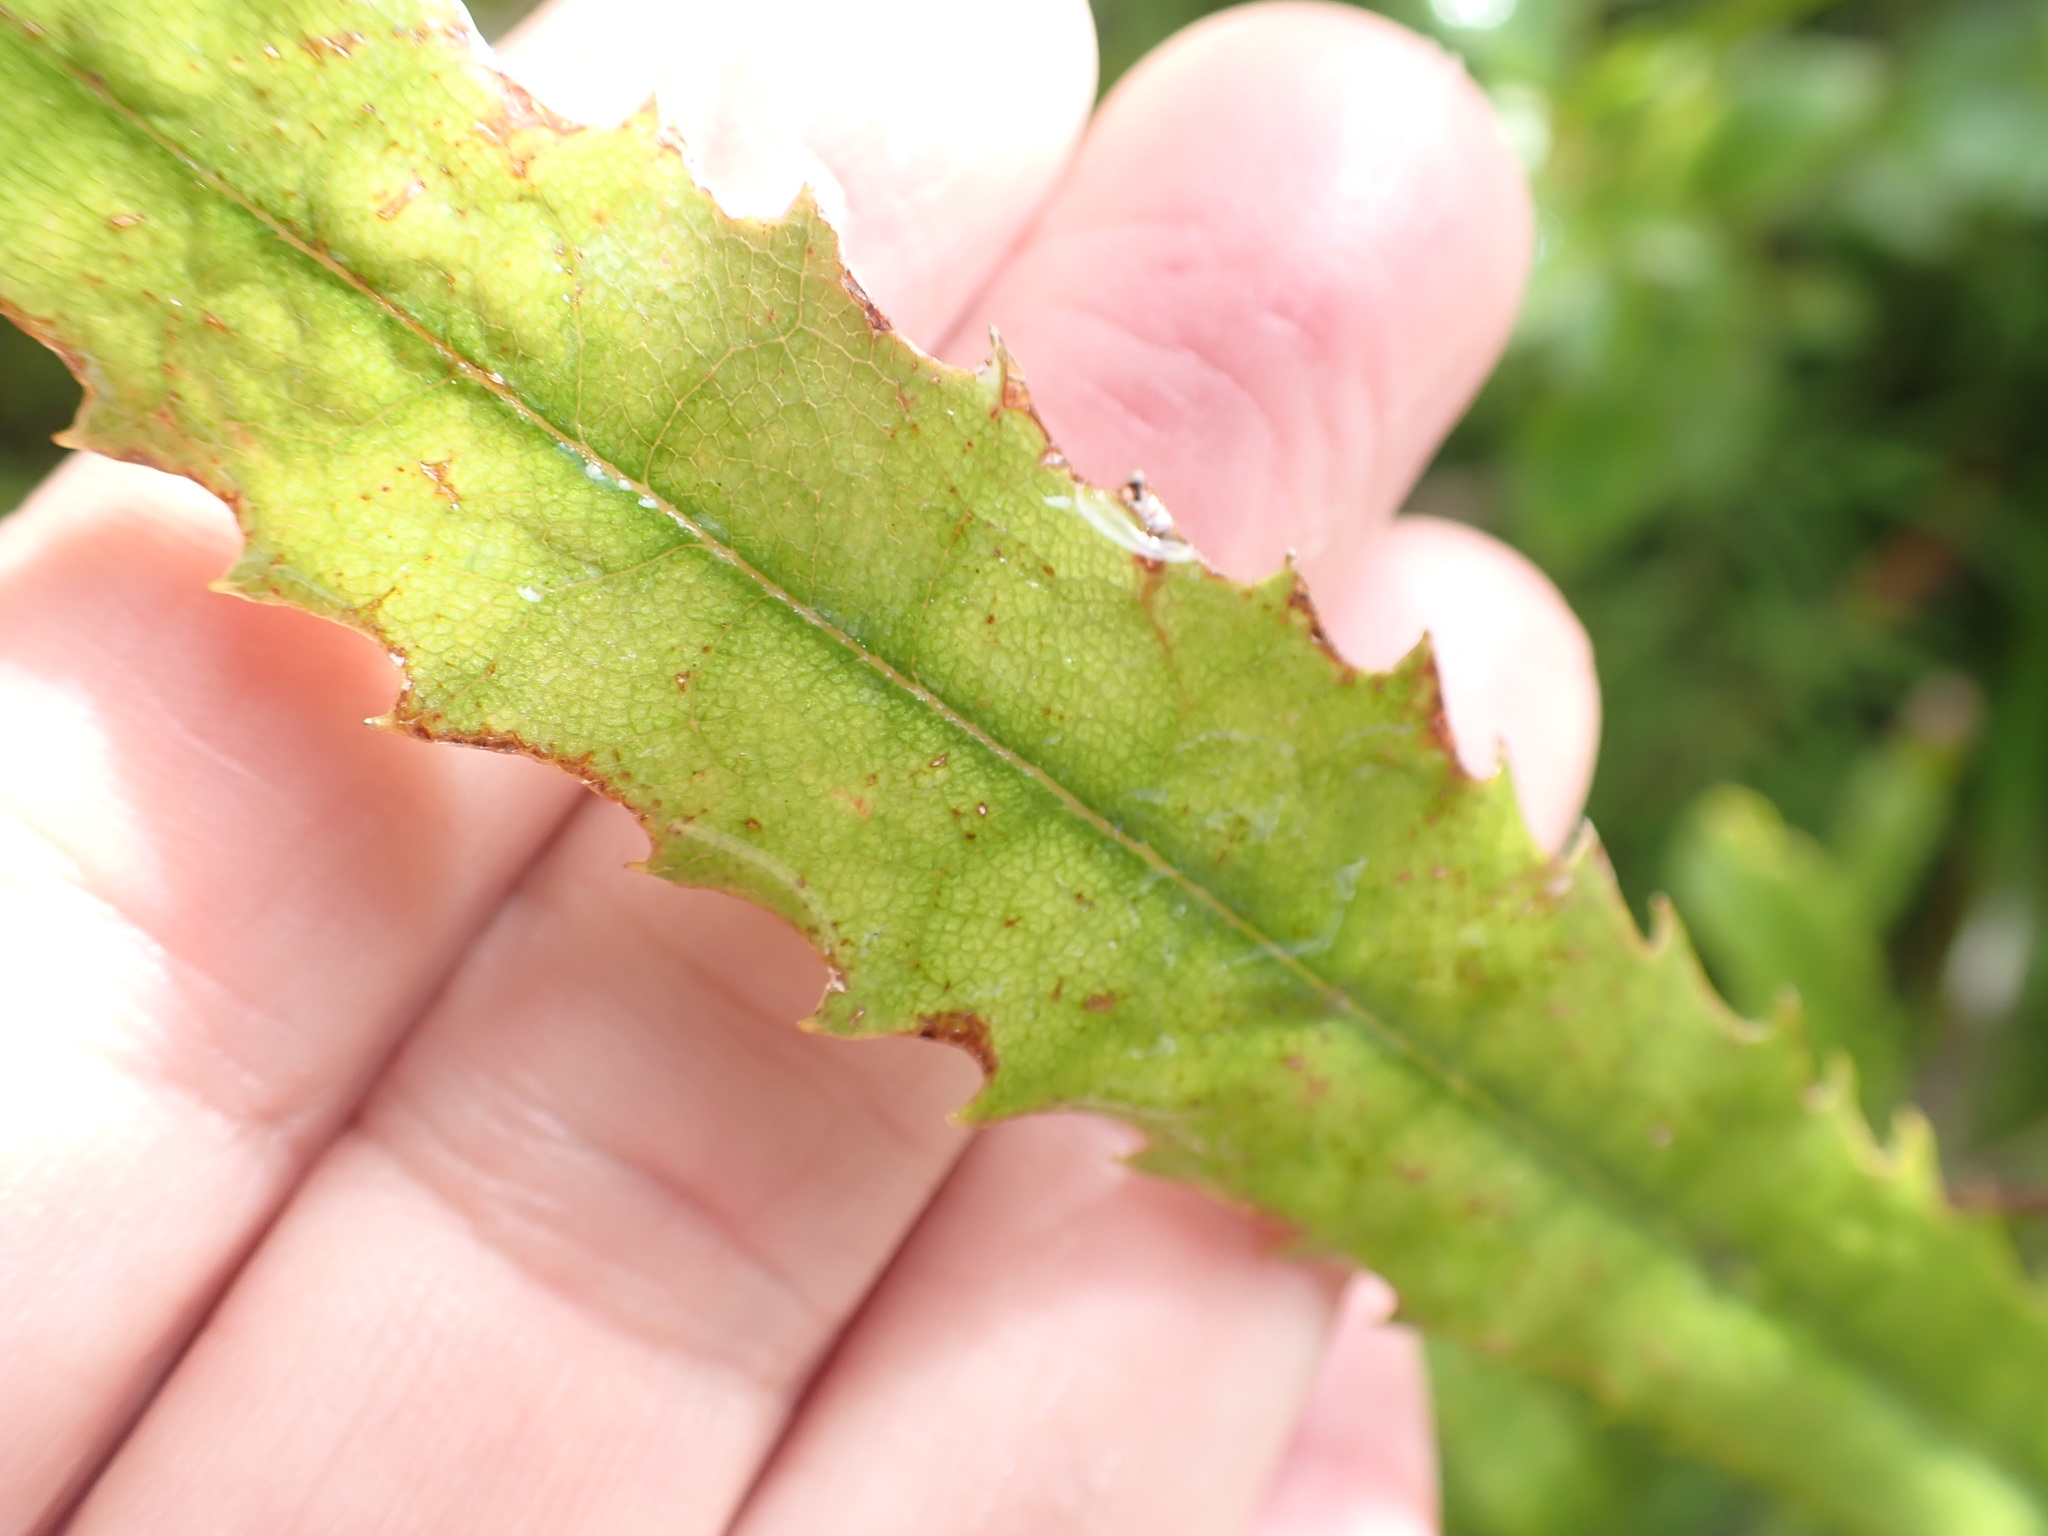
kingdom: Plantae
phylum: Tracheophyta
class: Magnoliopsida
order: Proteales
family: Proteaceae
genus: Knightia
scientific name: Knightia excelsa
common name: New zealand-honeysuckle
